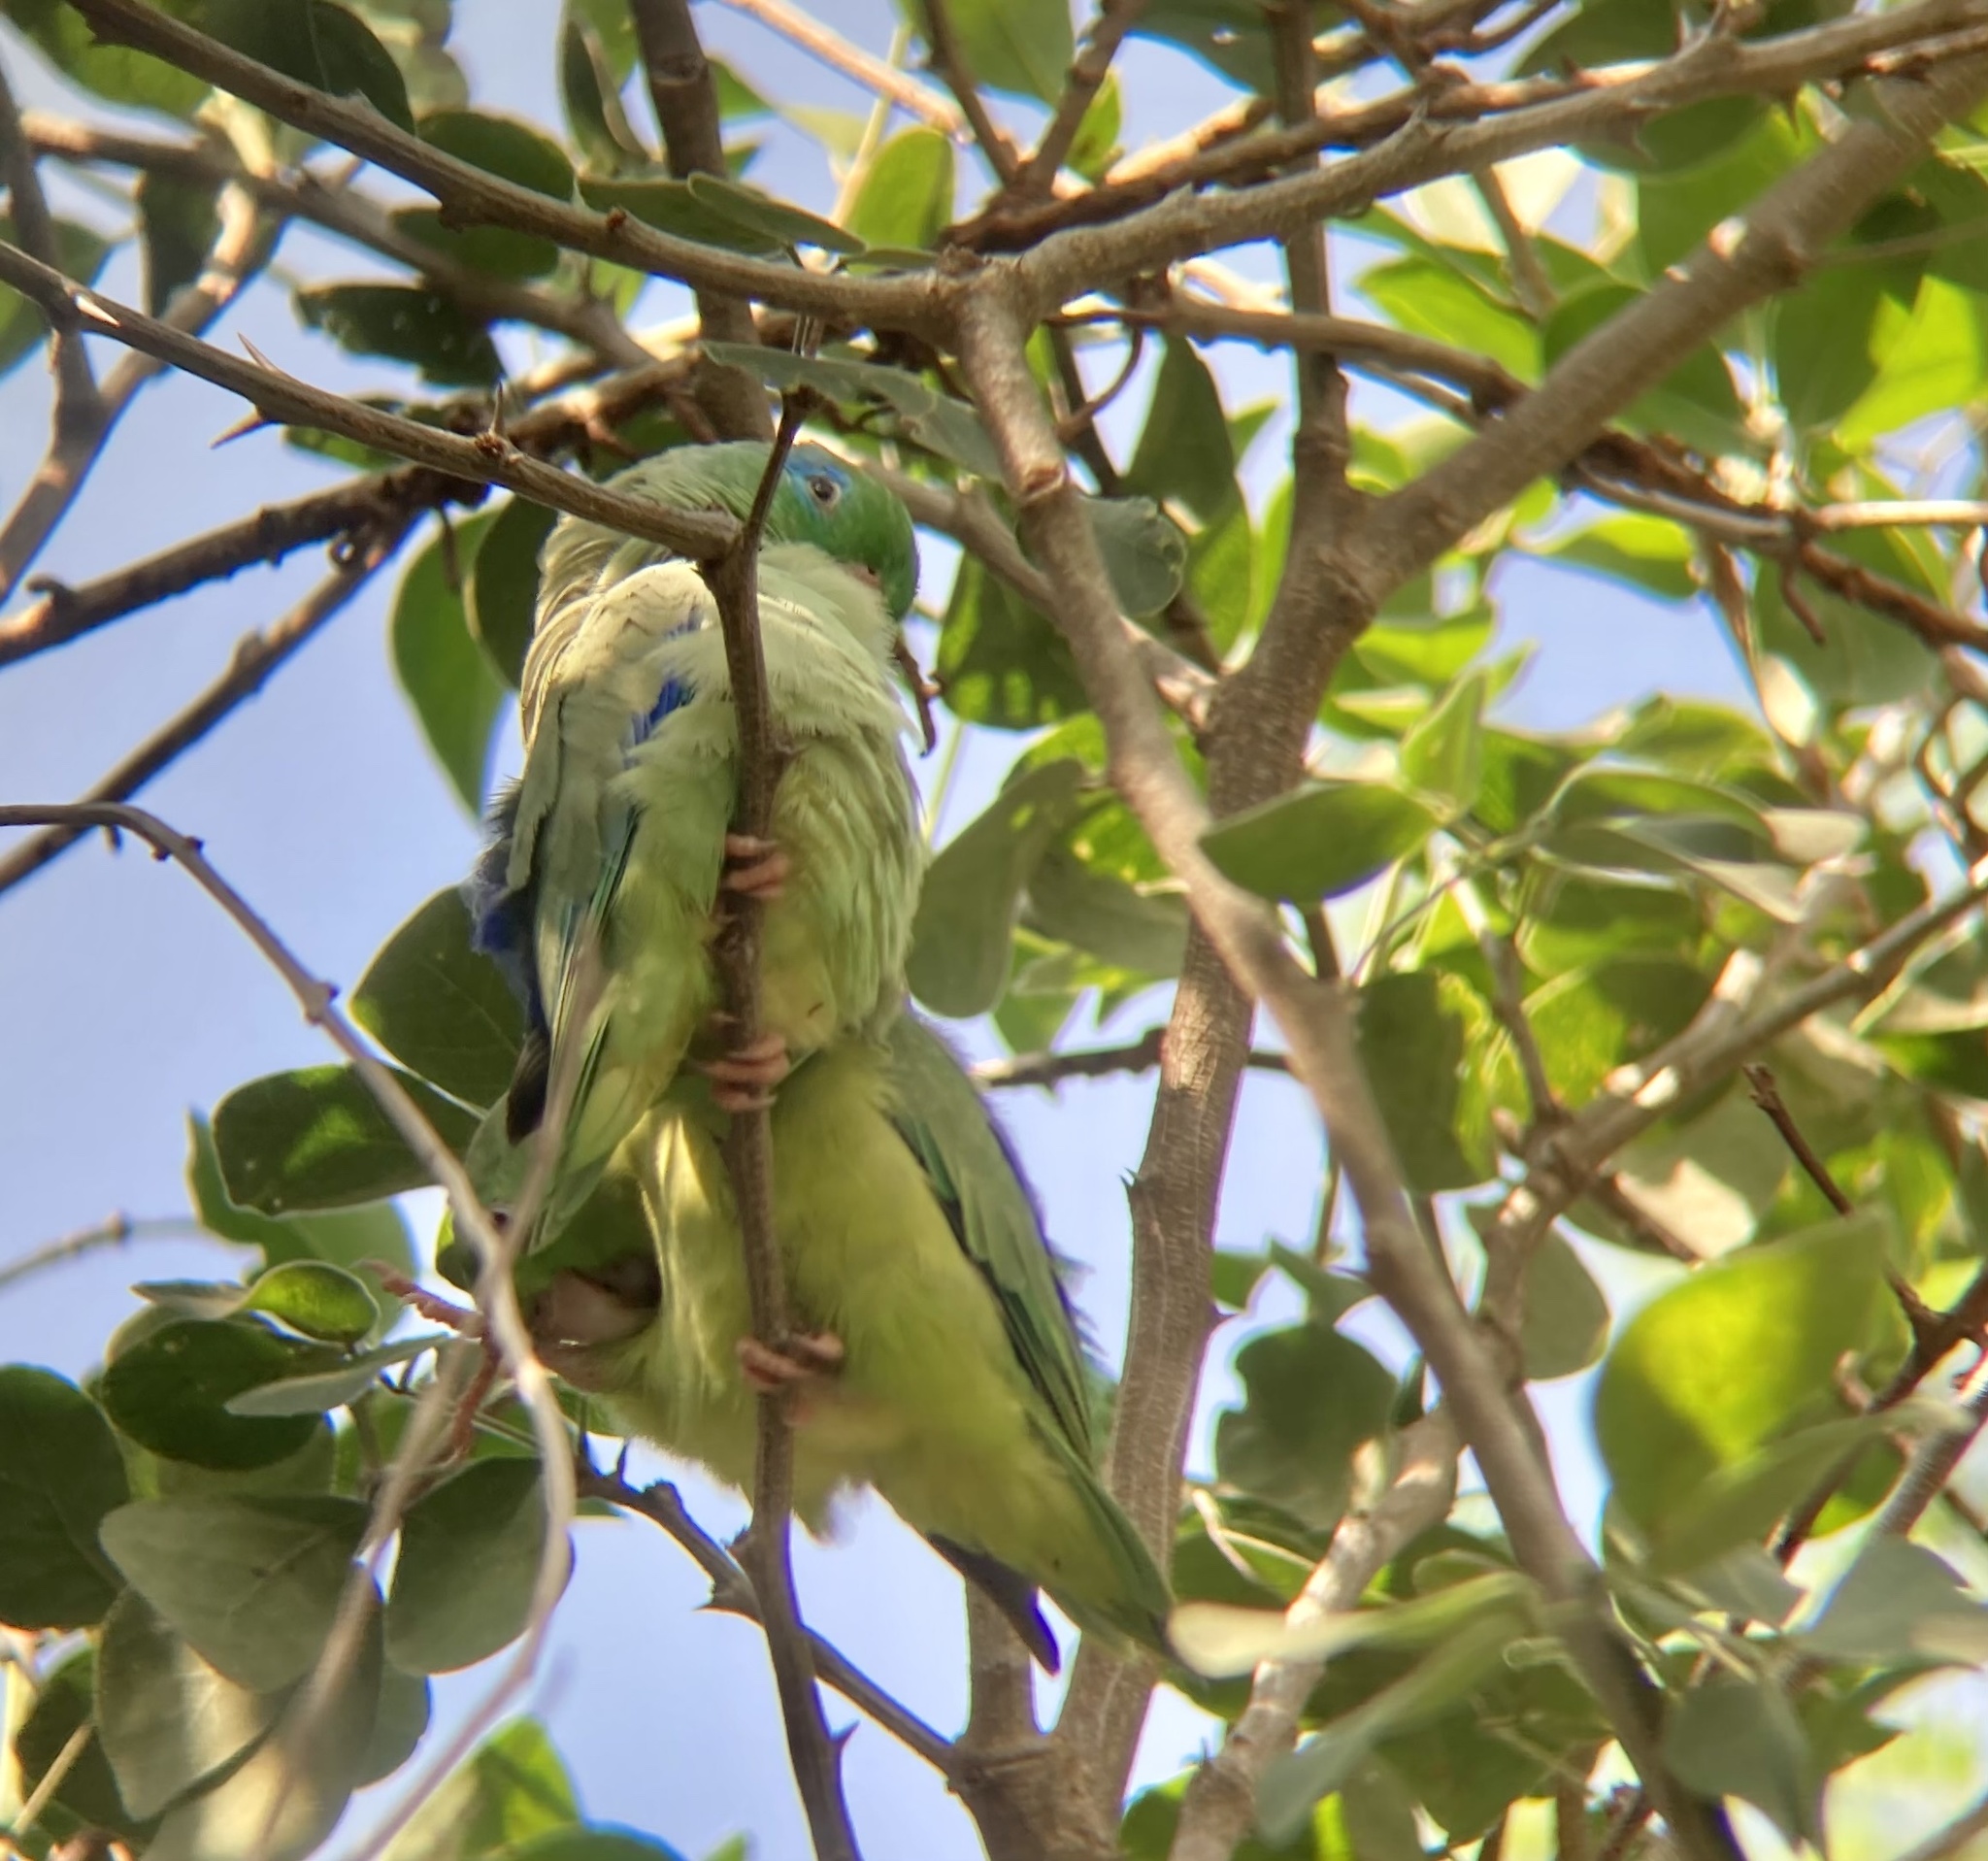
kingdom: Animalia
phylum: Chordata
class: Aves
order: Psittaciformes
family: Psittacidae
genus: Forpus
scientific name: Forpus conspicillatus
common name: Spectacled parrotlet
